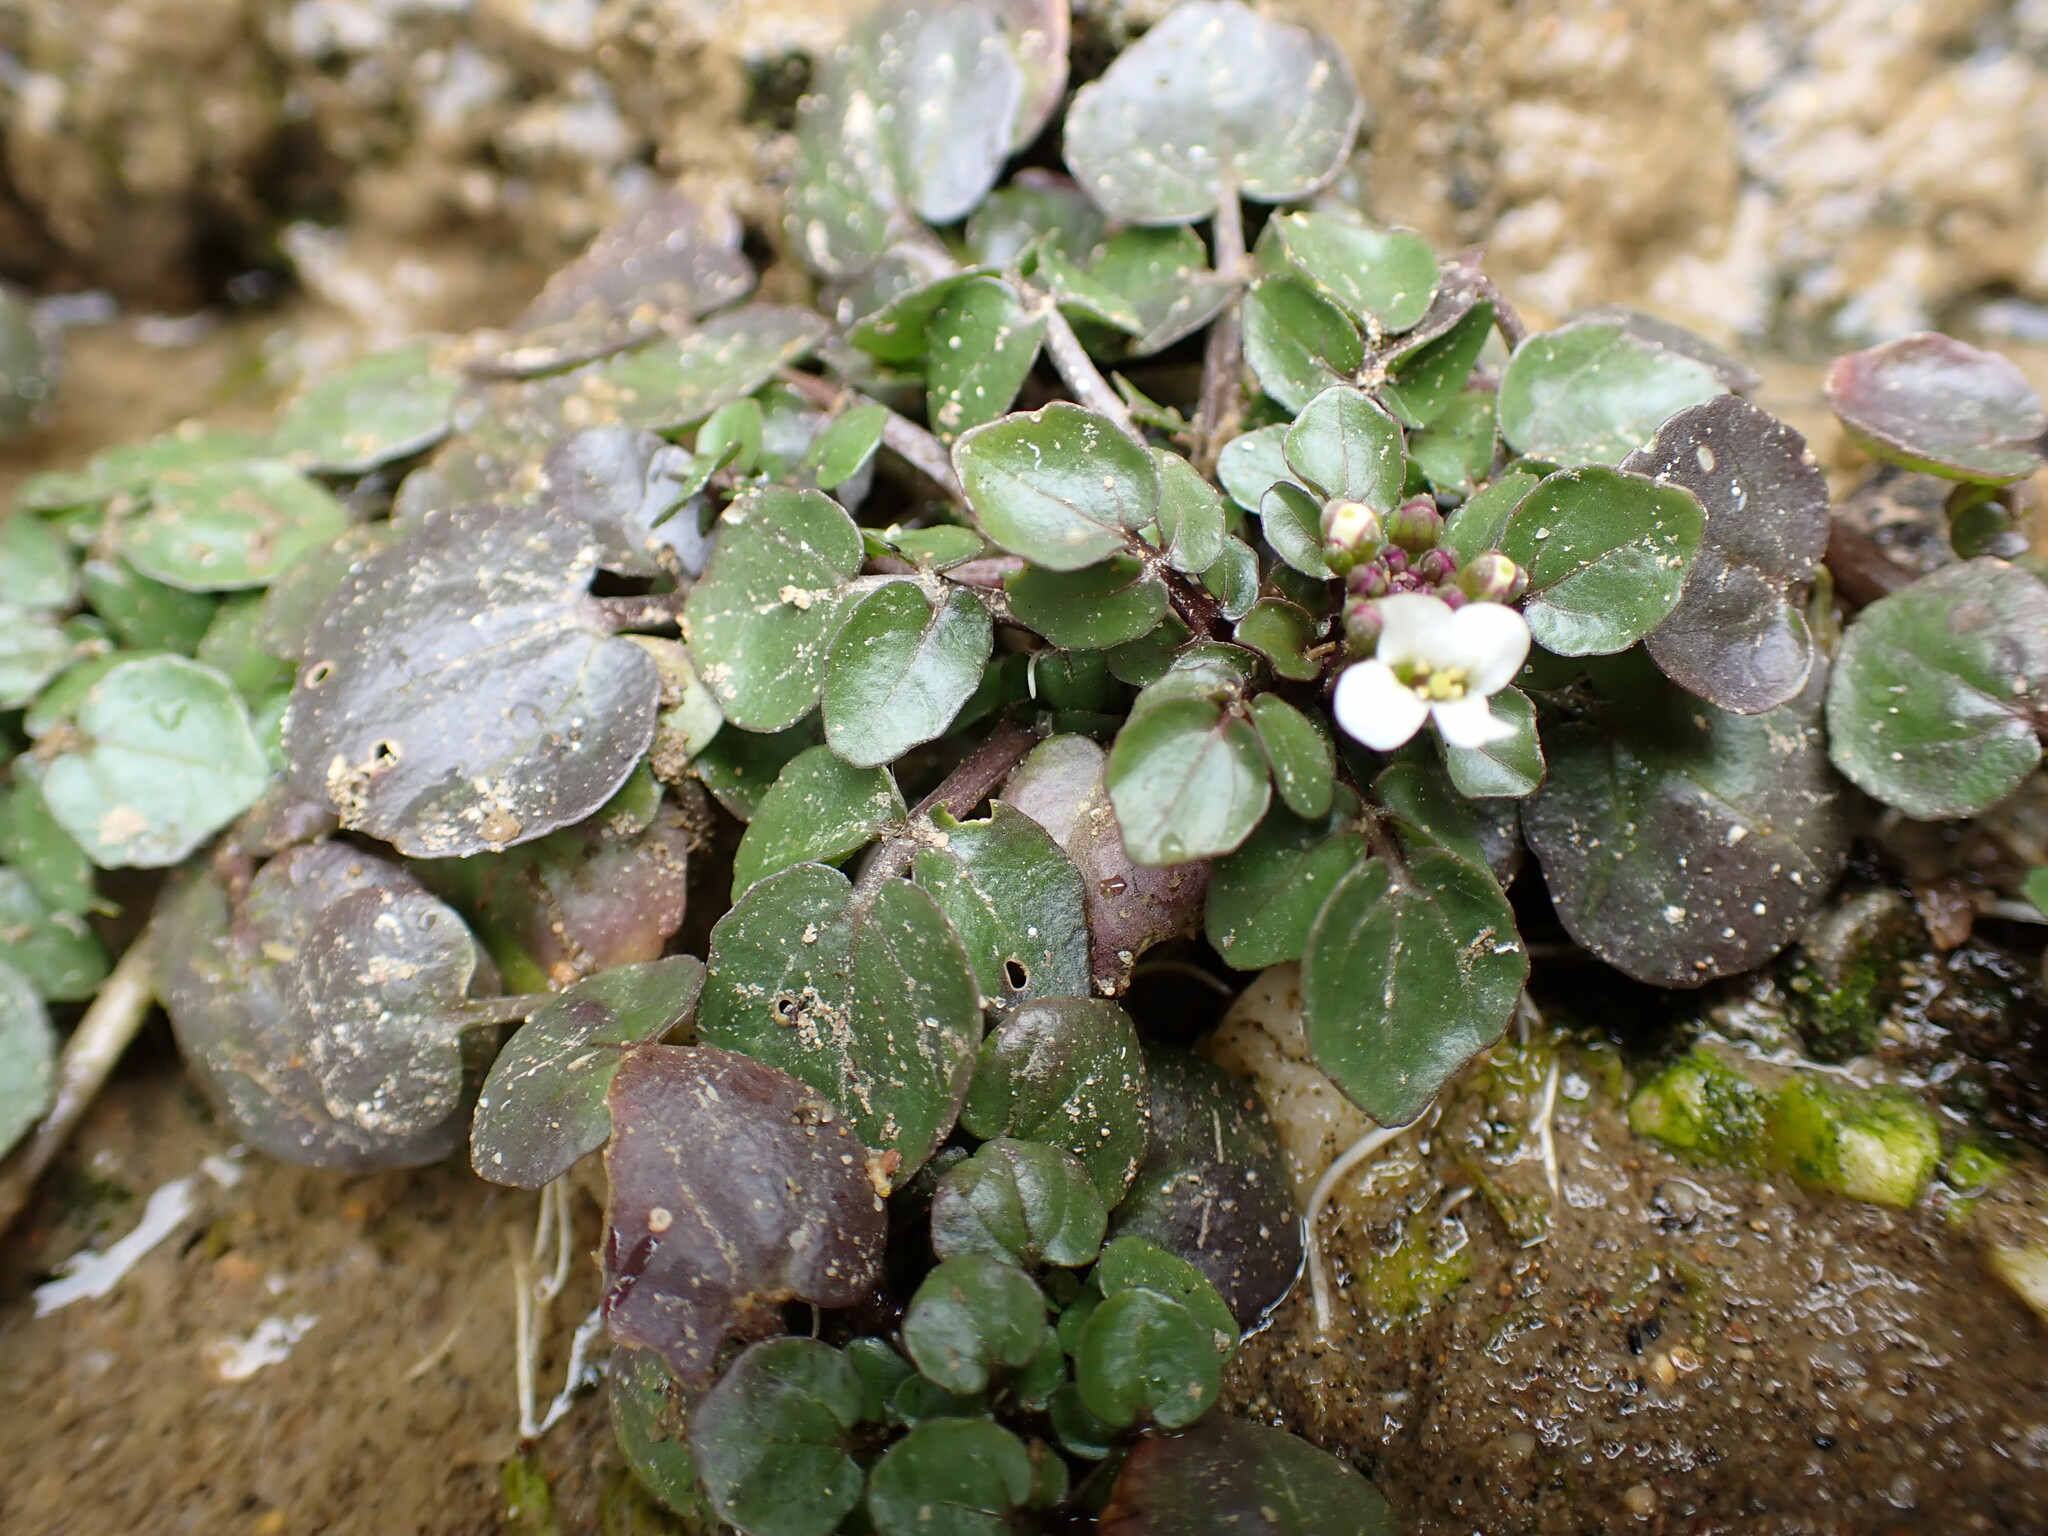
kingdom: Plantae
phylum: Tracheophyta
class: Magnoliopsida
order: Brassicales
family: Brassicaceae
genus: Nasturtium
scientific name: Nasturtium officinale
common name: Watercress
